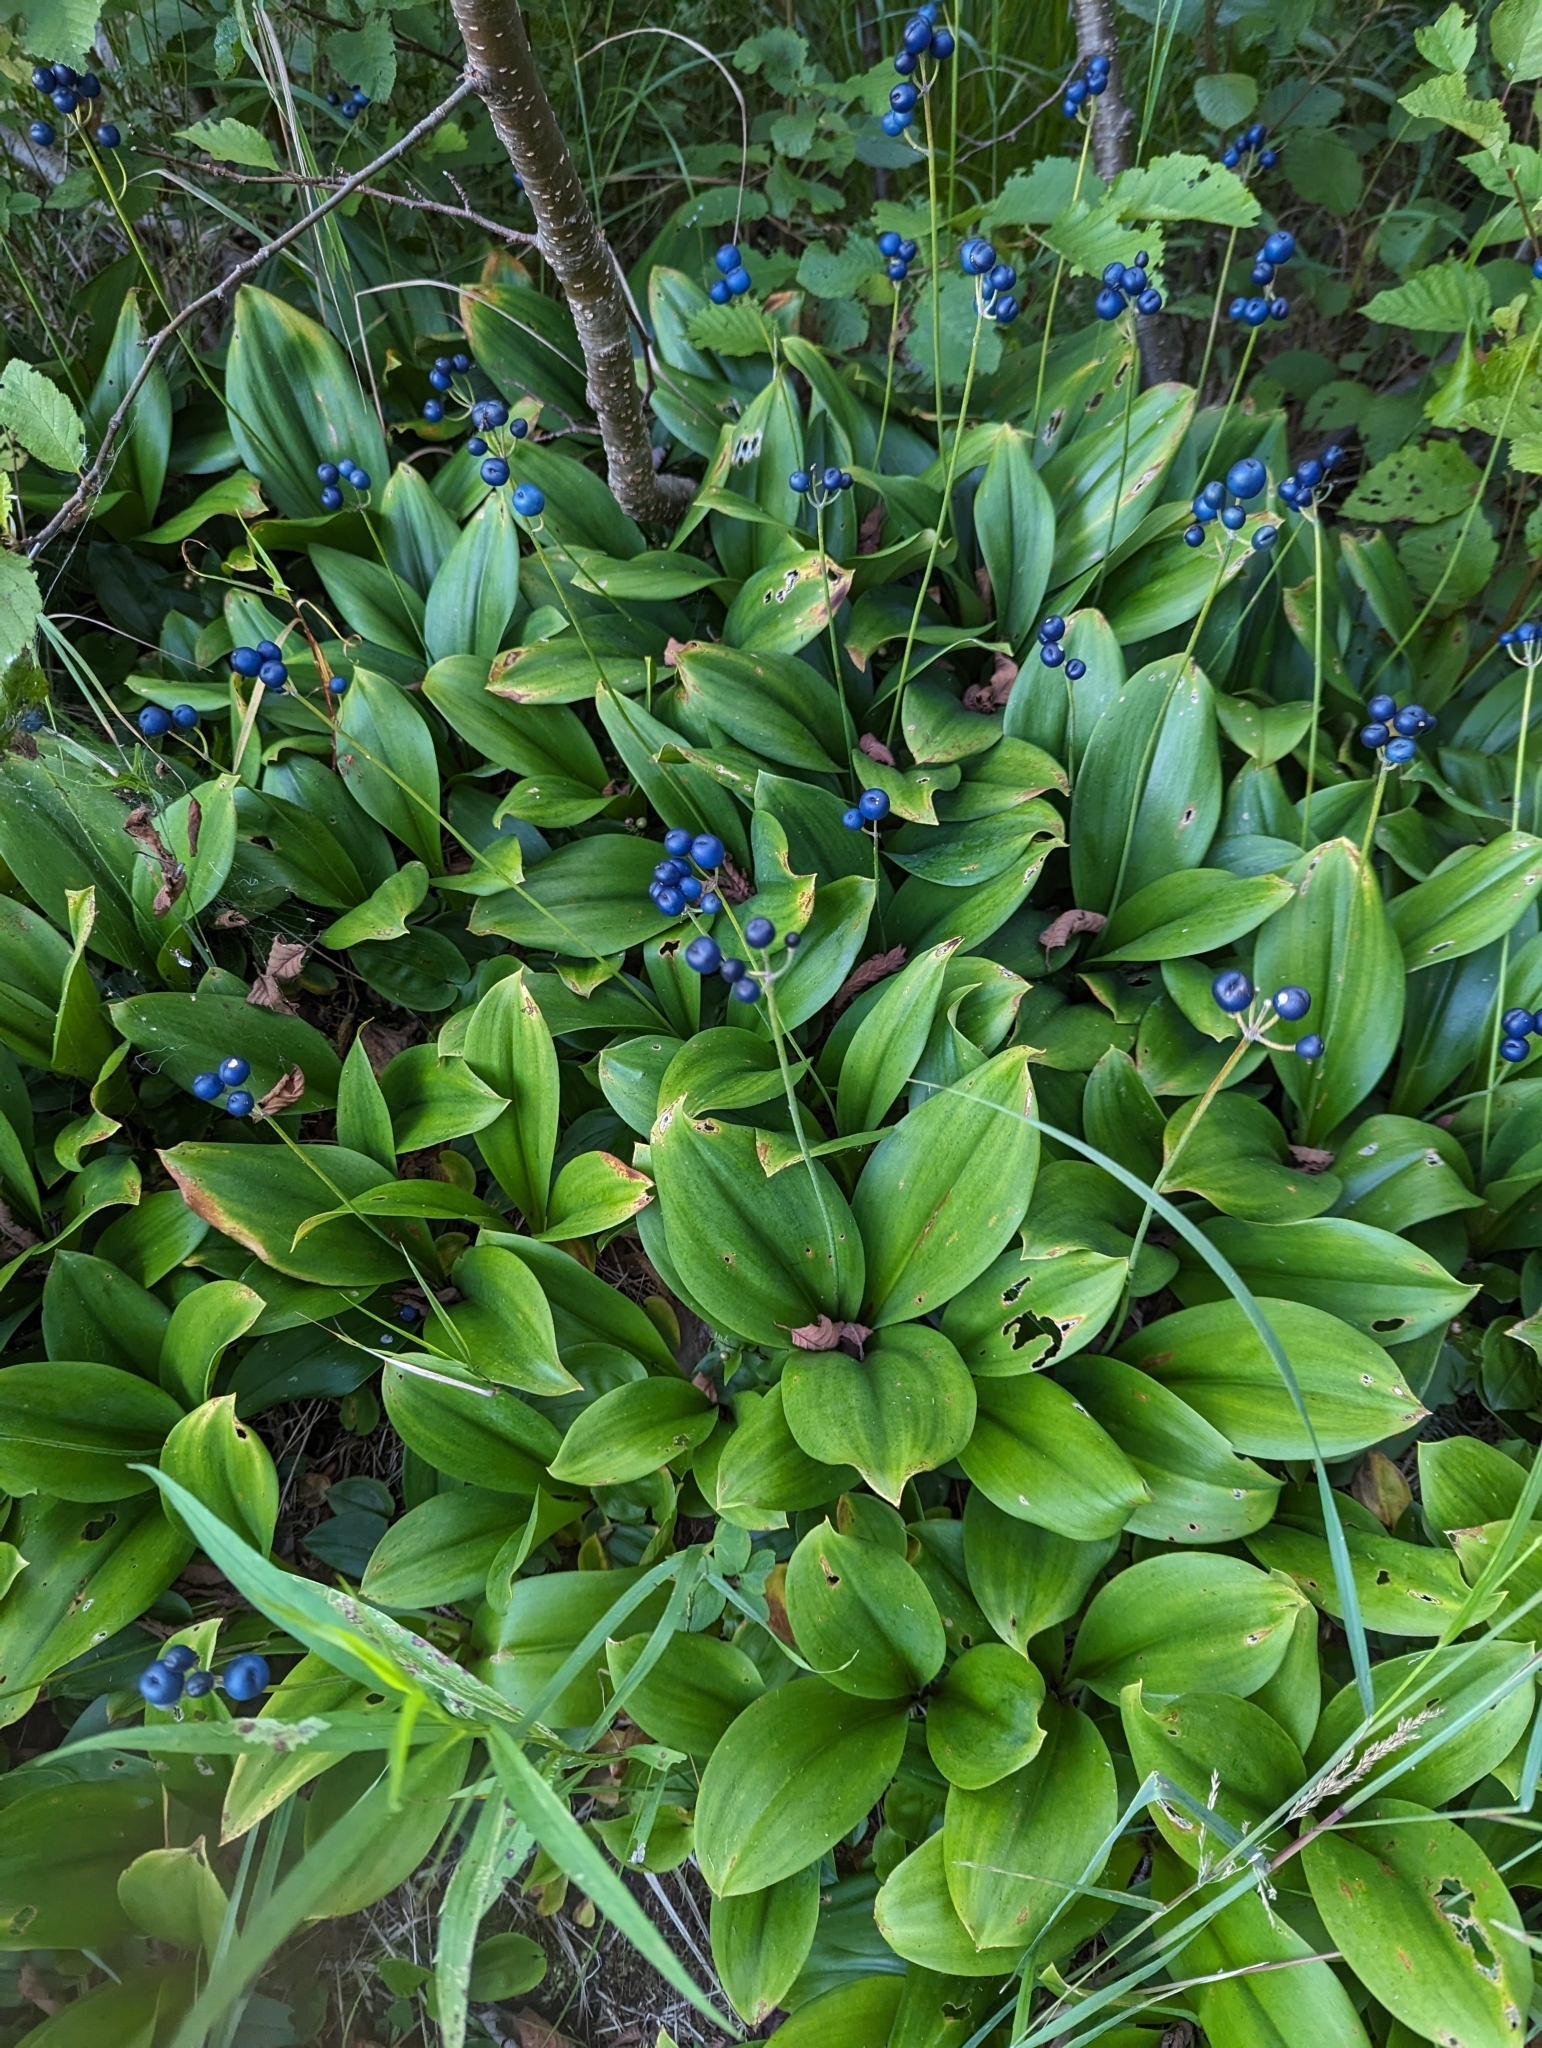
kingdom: Plantae
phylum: Tracheophyta
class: Liliopsida
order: Liliales
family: Liliaceae
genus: Clintonia
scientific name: Clintonia borealis
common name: Yellow clintonia
